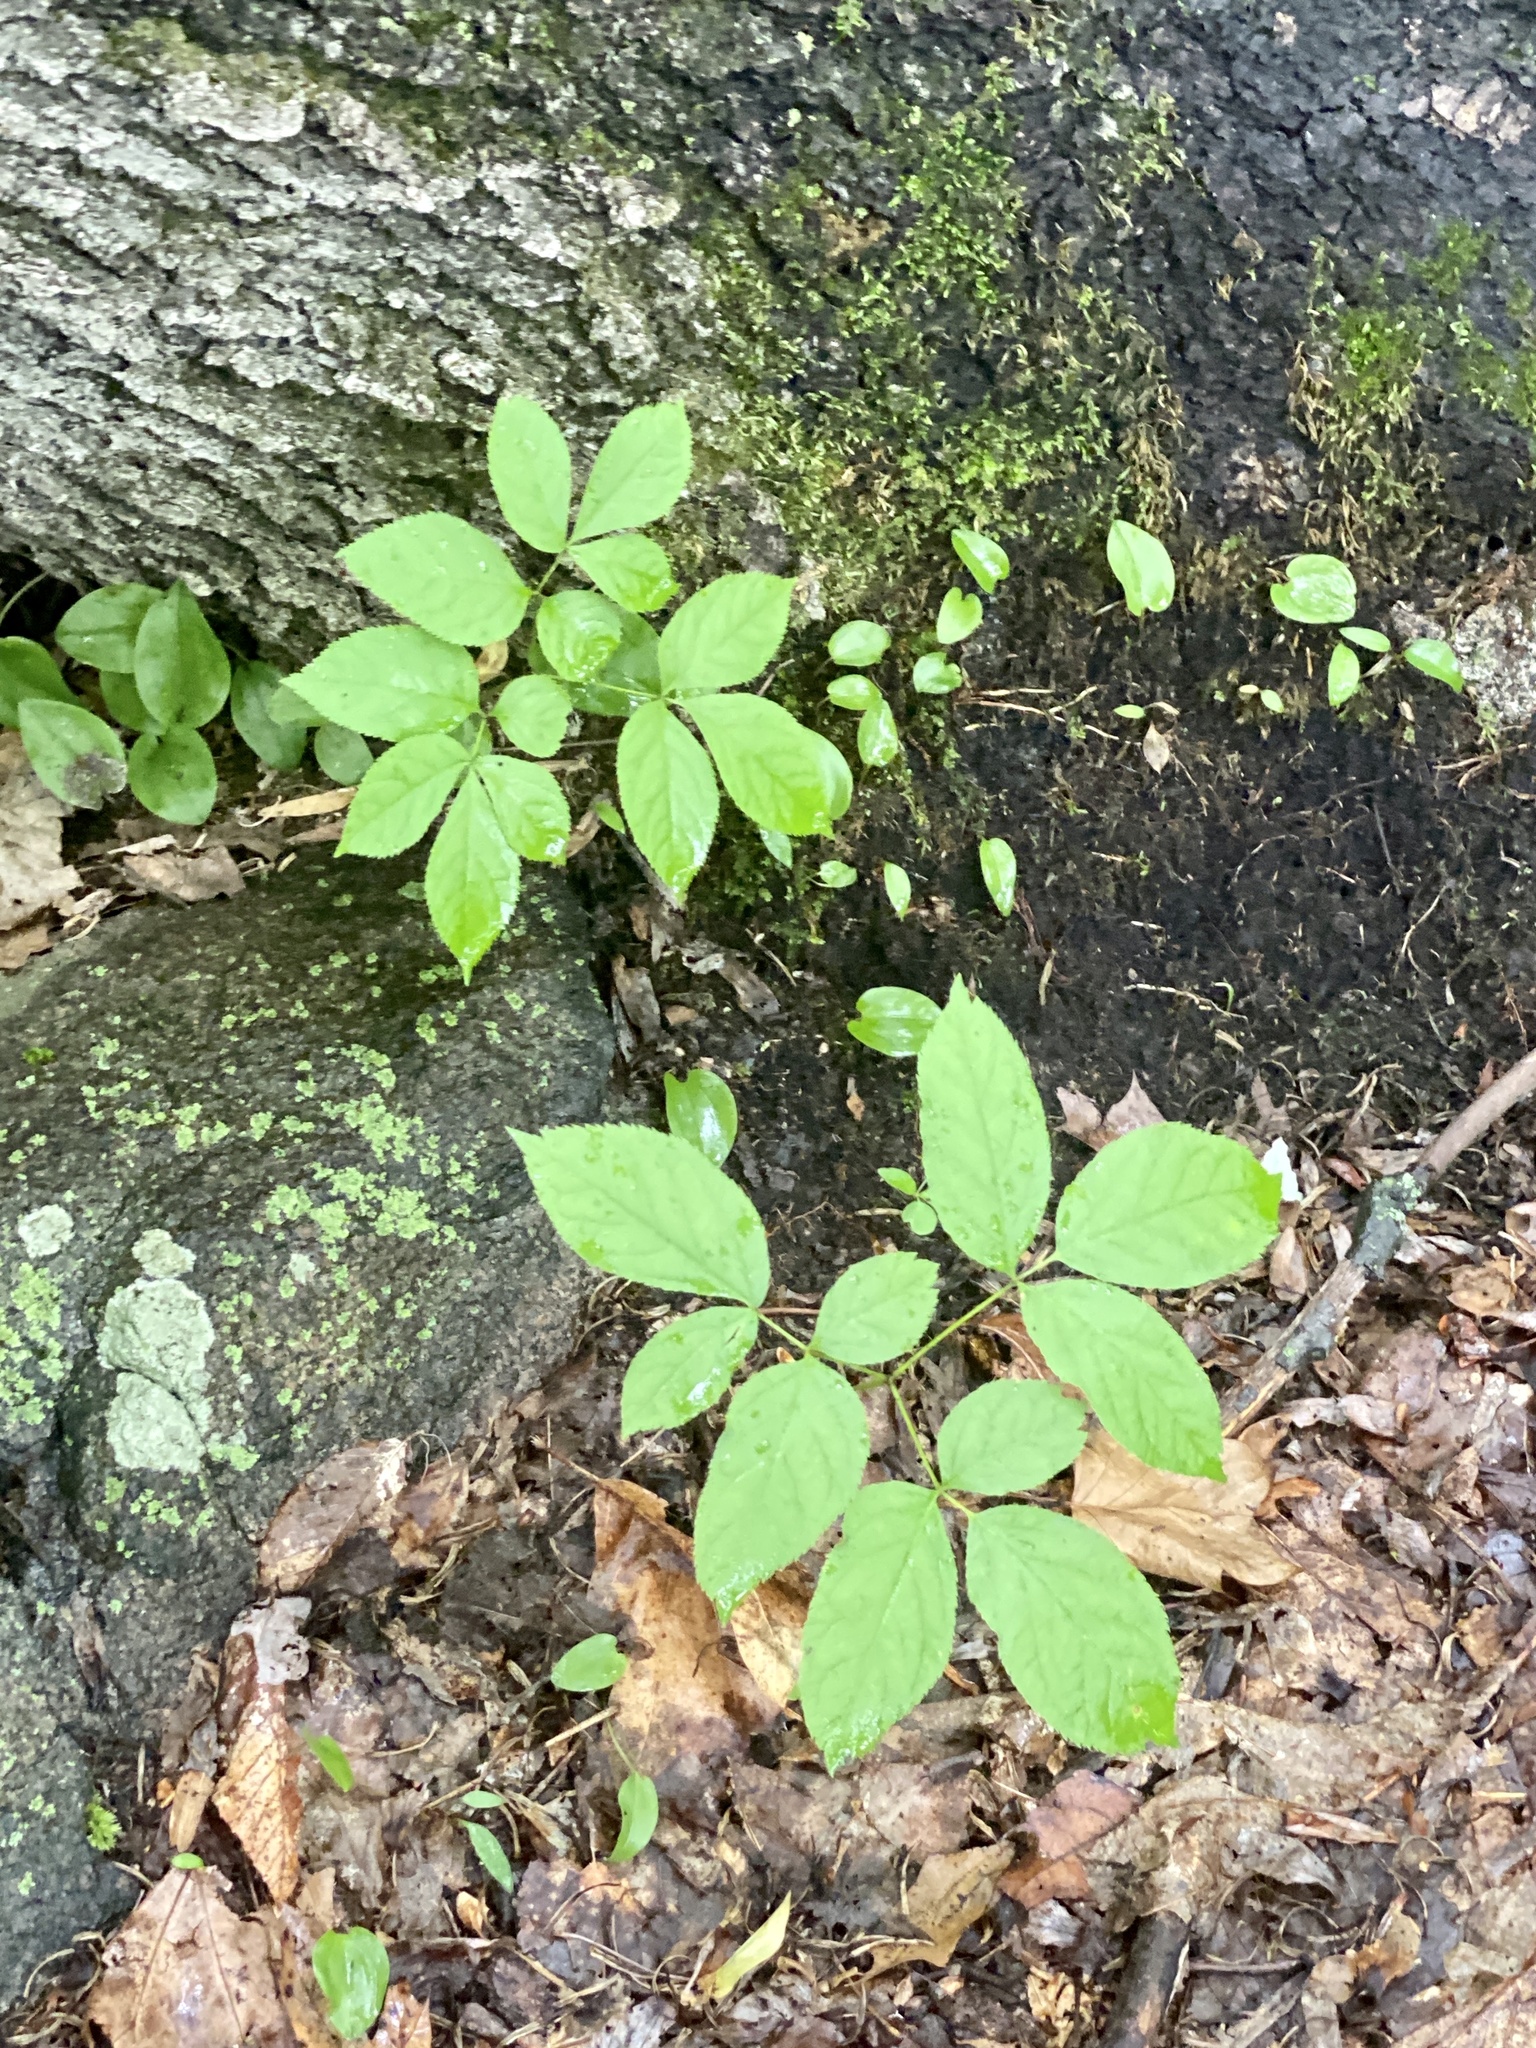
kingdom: Plantae
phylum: Tracheophyta
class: Magnoliopsida
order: Apiales
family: Araliaceae
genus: Aralia
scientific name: Aralia nudicaulis
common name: Wild sarsaparilla
